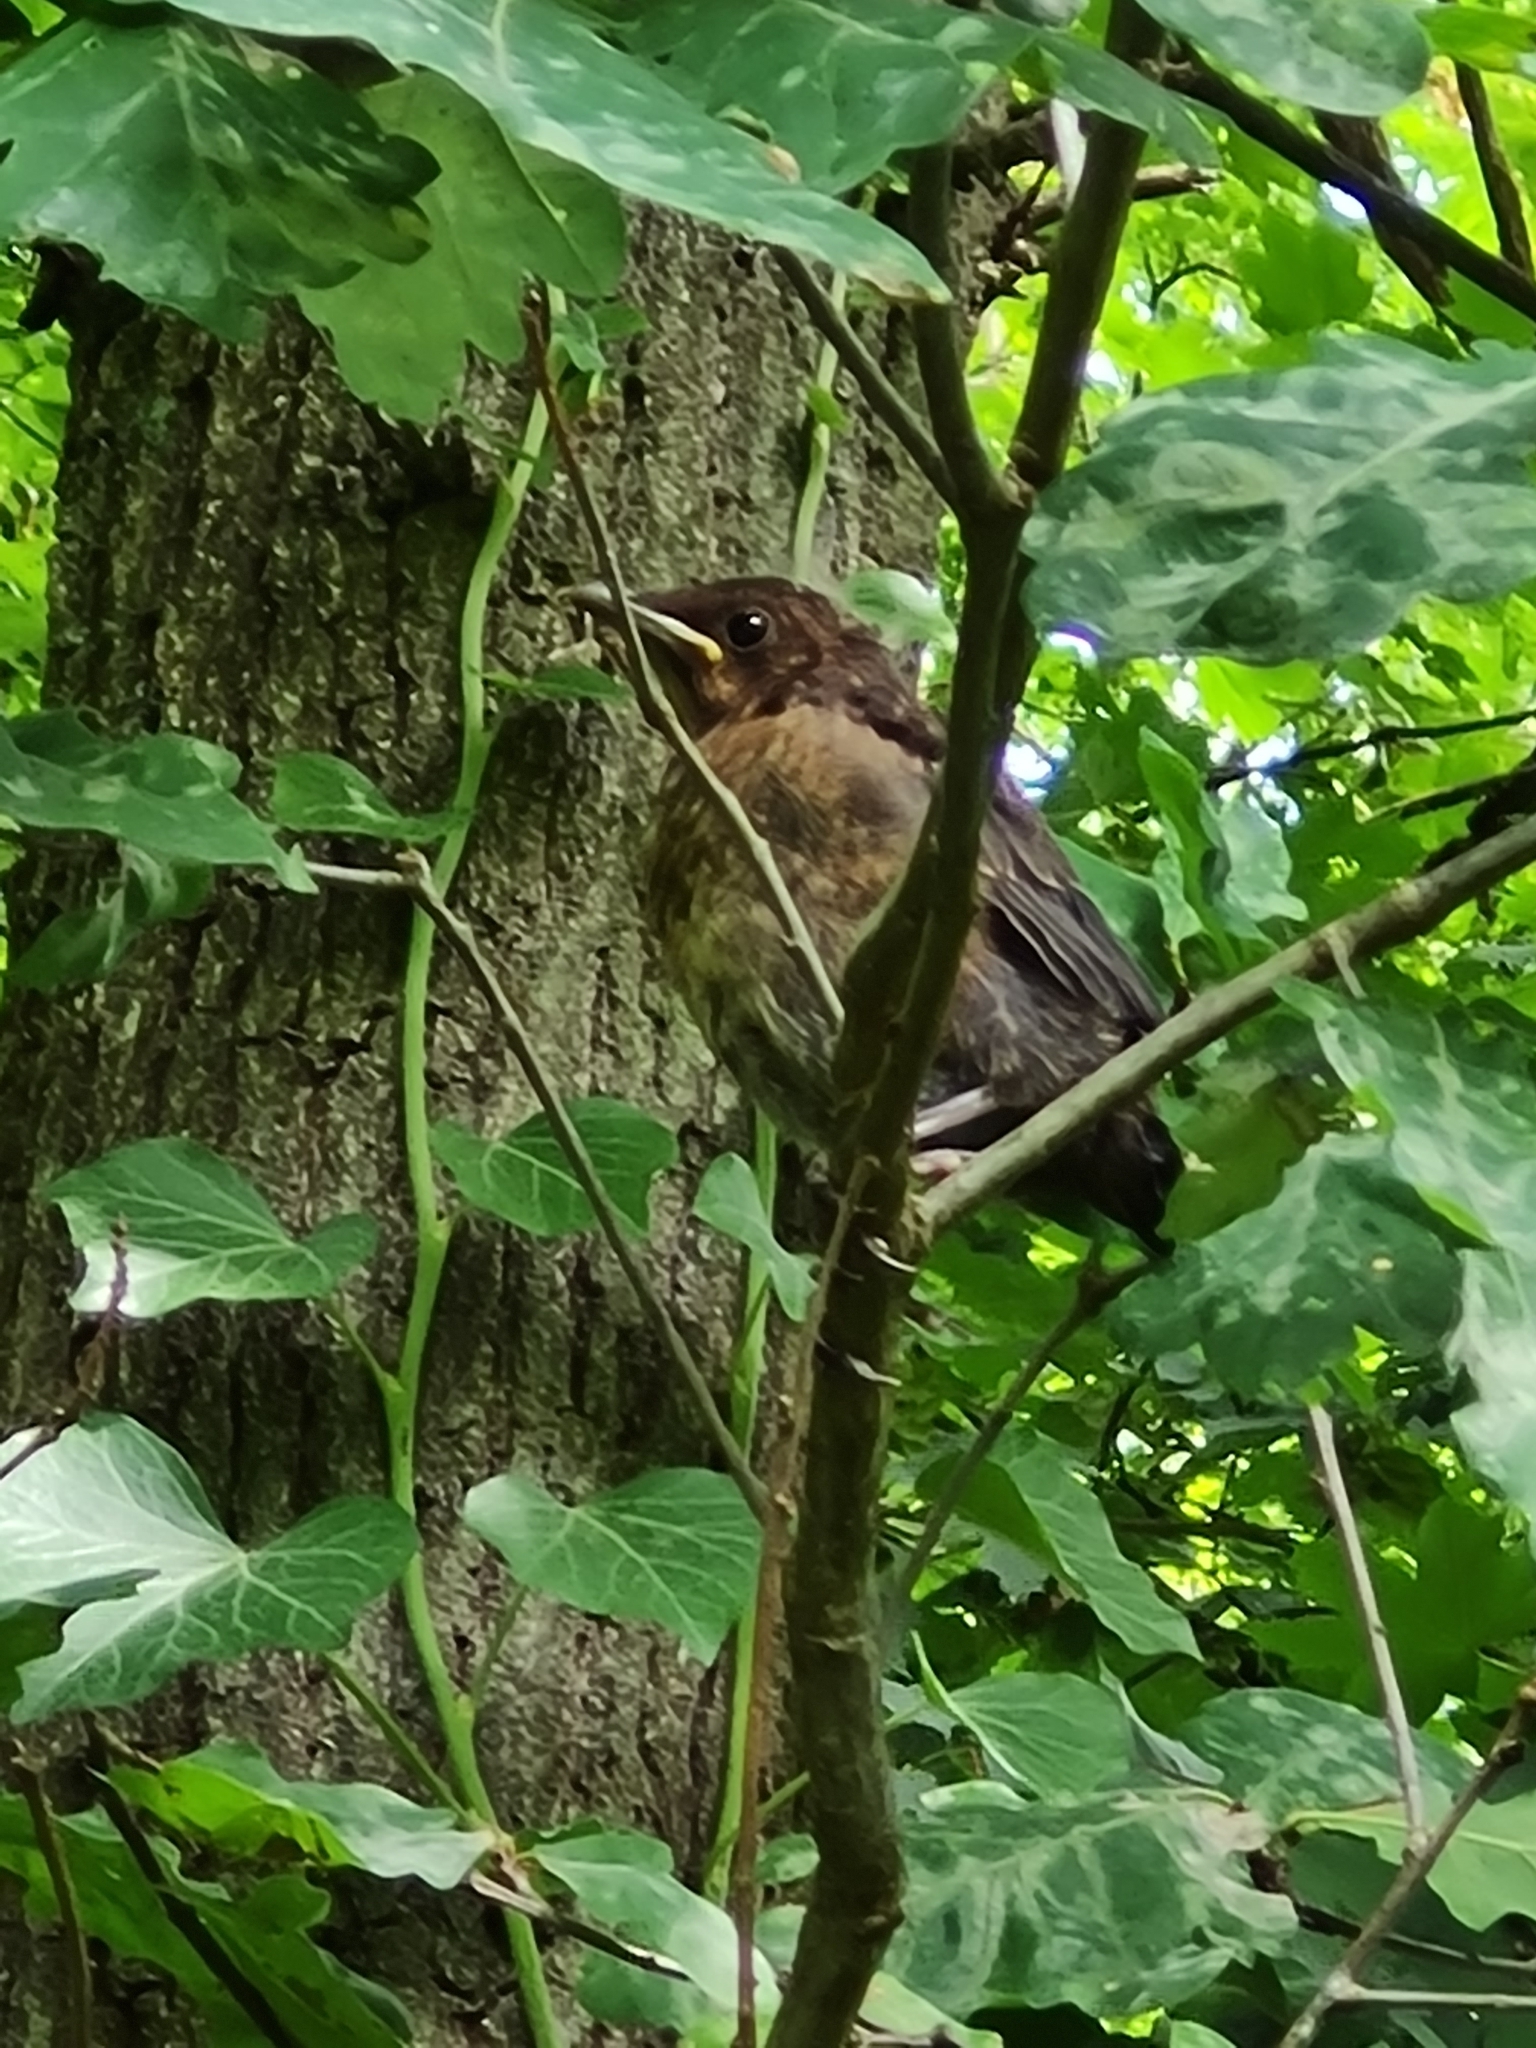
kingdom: Animalia
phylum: Chordata
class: Aves
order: Passeriformes
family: Turdidae
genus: Turdus
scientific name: Turdus merula
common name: Common blackbird
